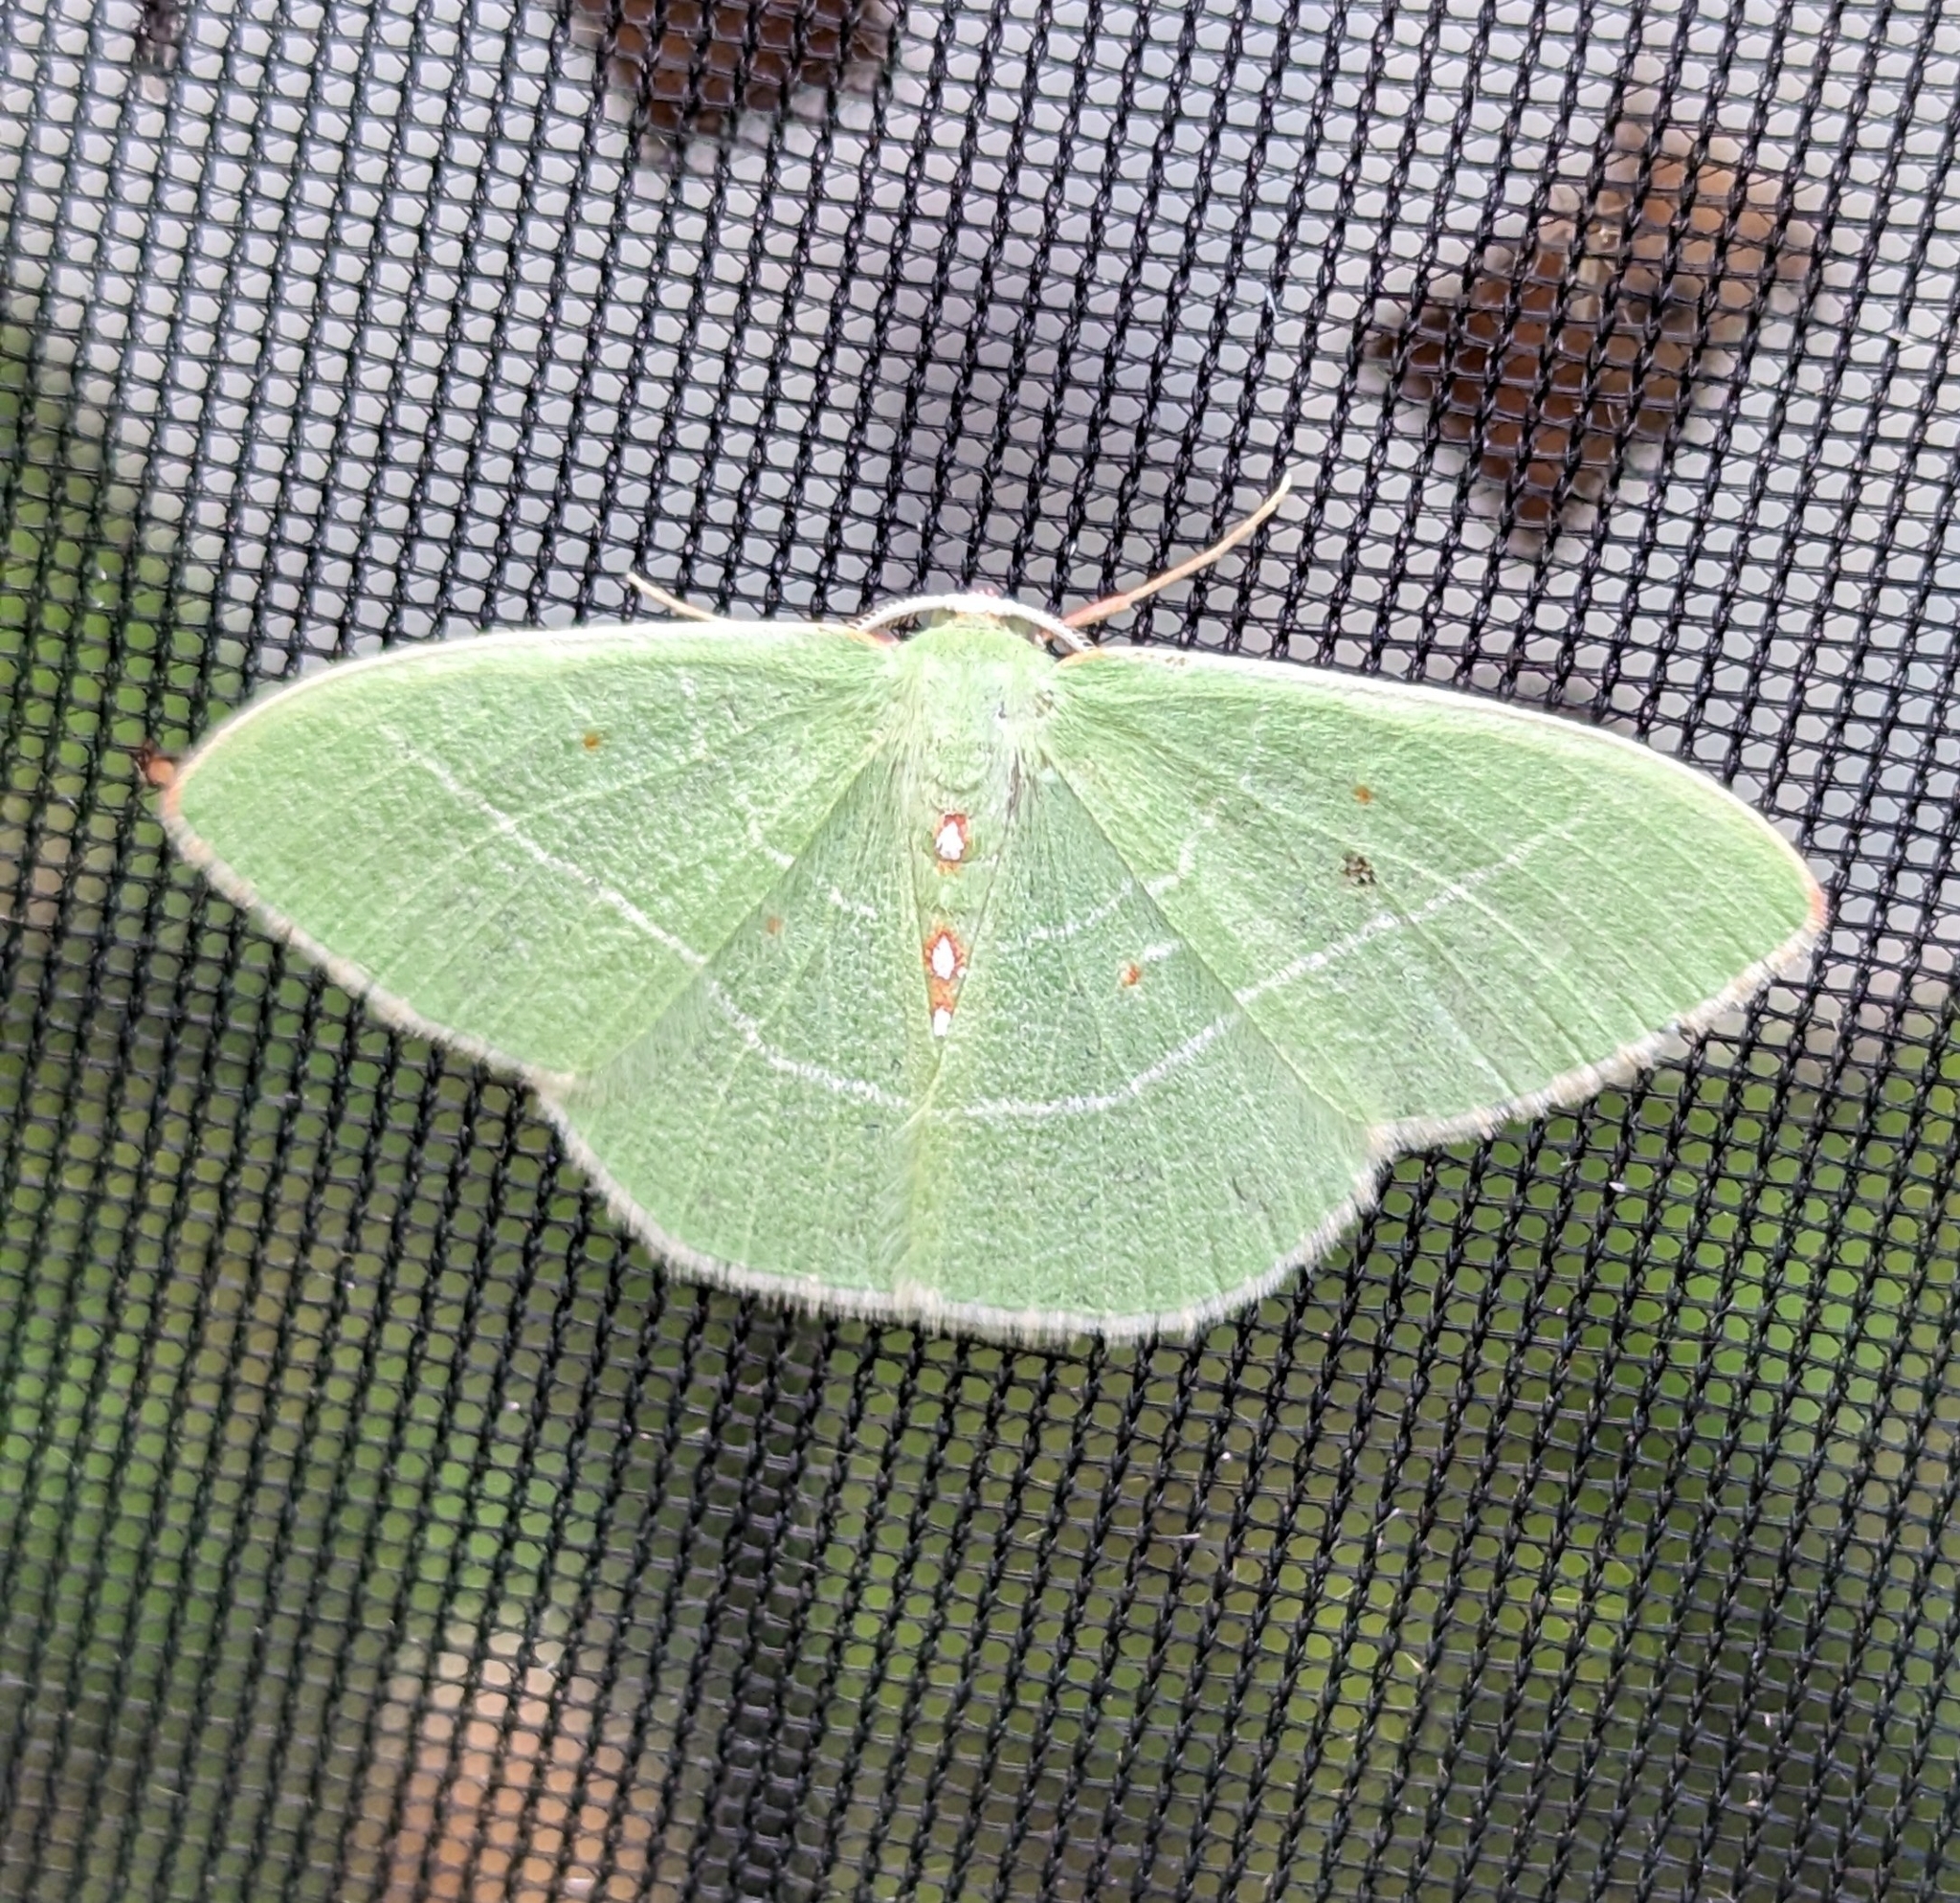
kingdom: Animalia
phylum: Arthropoda
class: Insecta
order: Lepidoptera
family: Geometridae
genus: Nemoria
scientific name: Nemoria darwiniata
